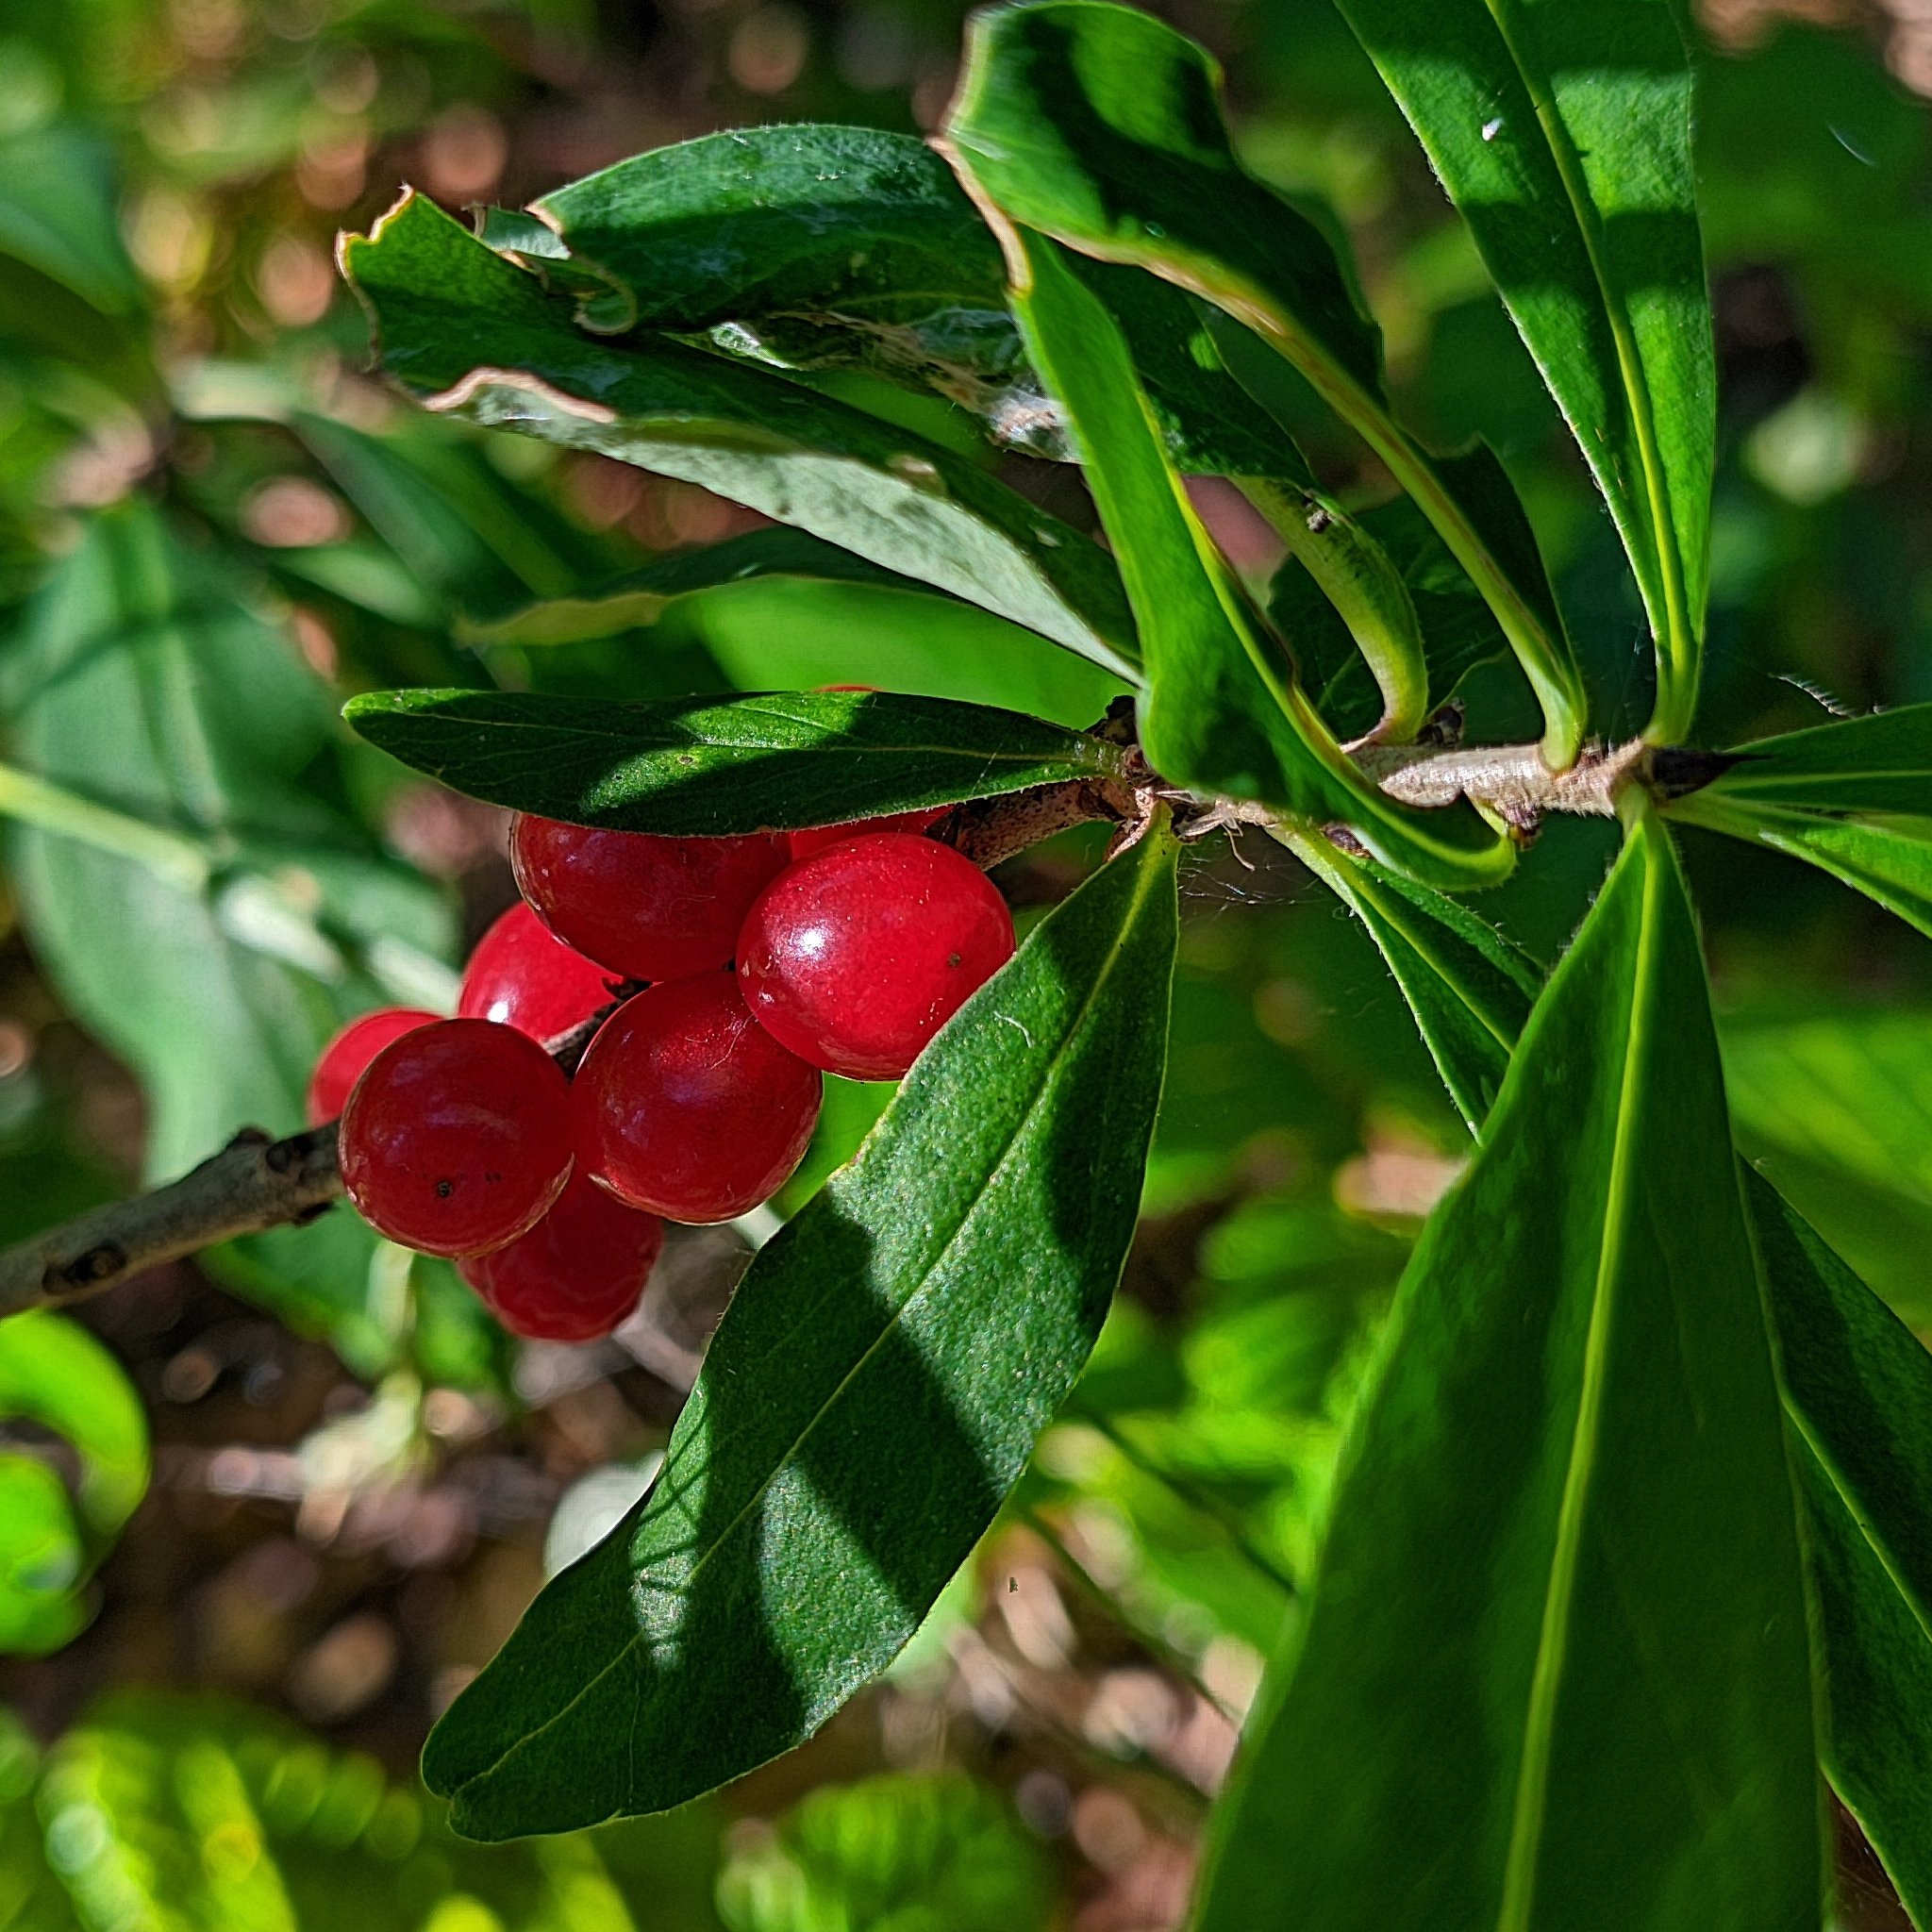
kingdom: Plantae
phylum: Tracheophyta
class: Magnoliopsida
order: Malvales
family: Thymelaeaceae
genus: Daphne
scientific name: Daphne mezereum
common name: Mezereon
